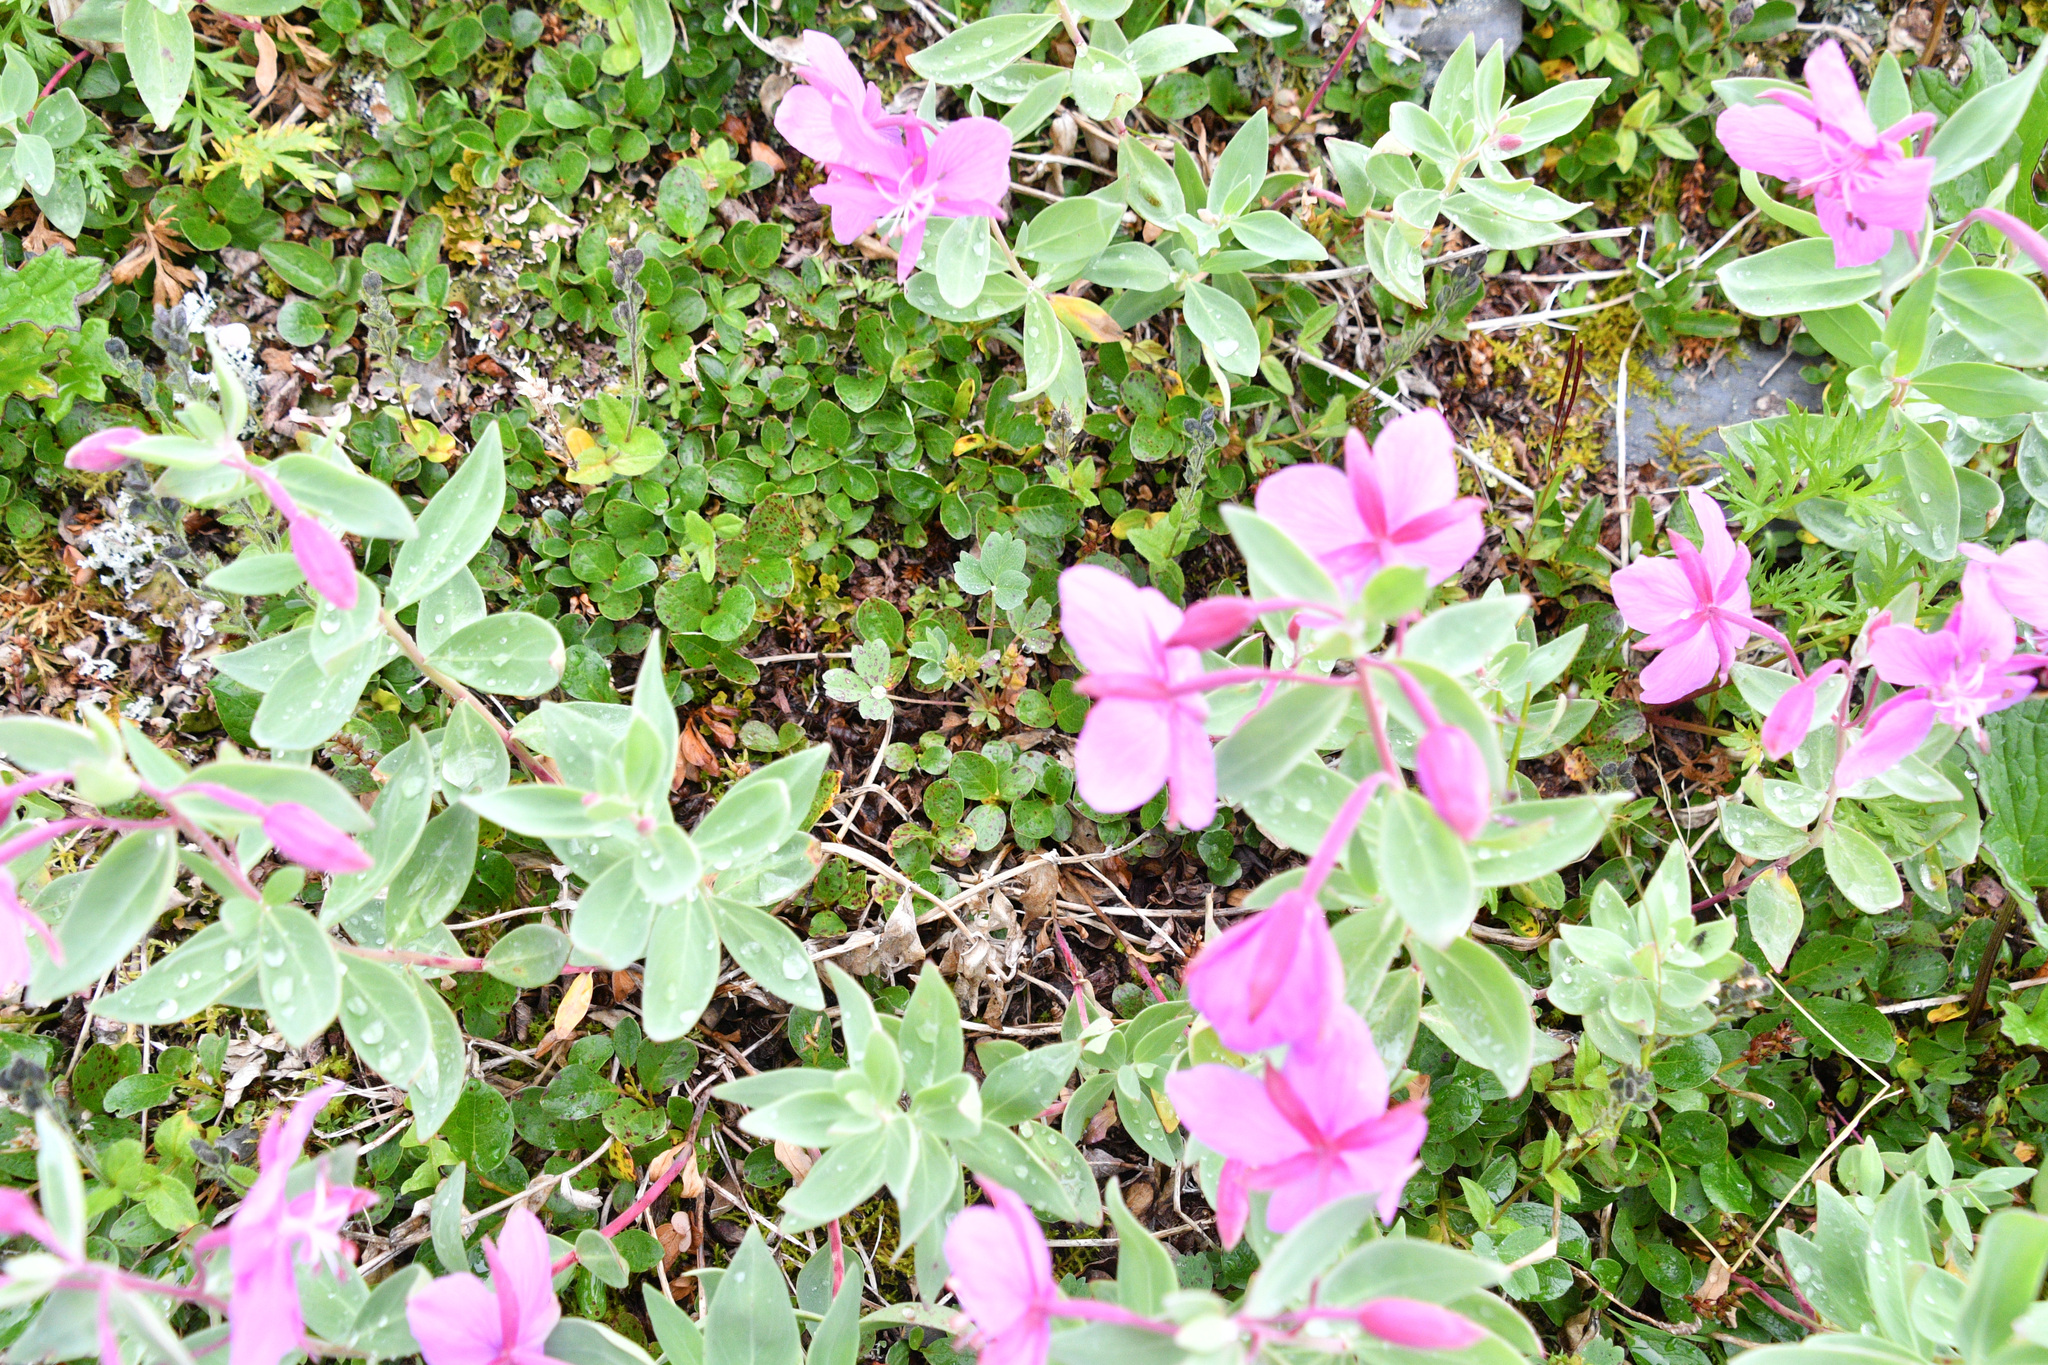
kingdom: Plantae
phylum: Tracheophyta
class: Magnoliopsida
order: Myrtales
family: Onagraceae
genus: Chamaenerion
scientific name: Chamaenerion latifolium
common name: Dwarf fireweed
